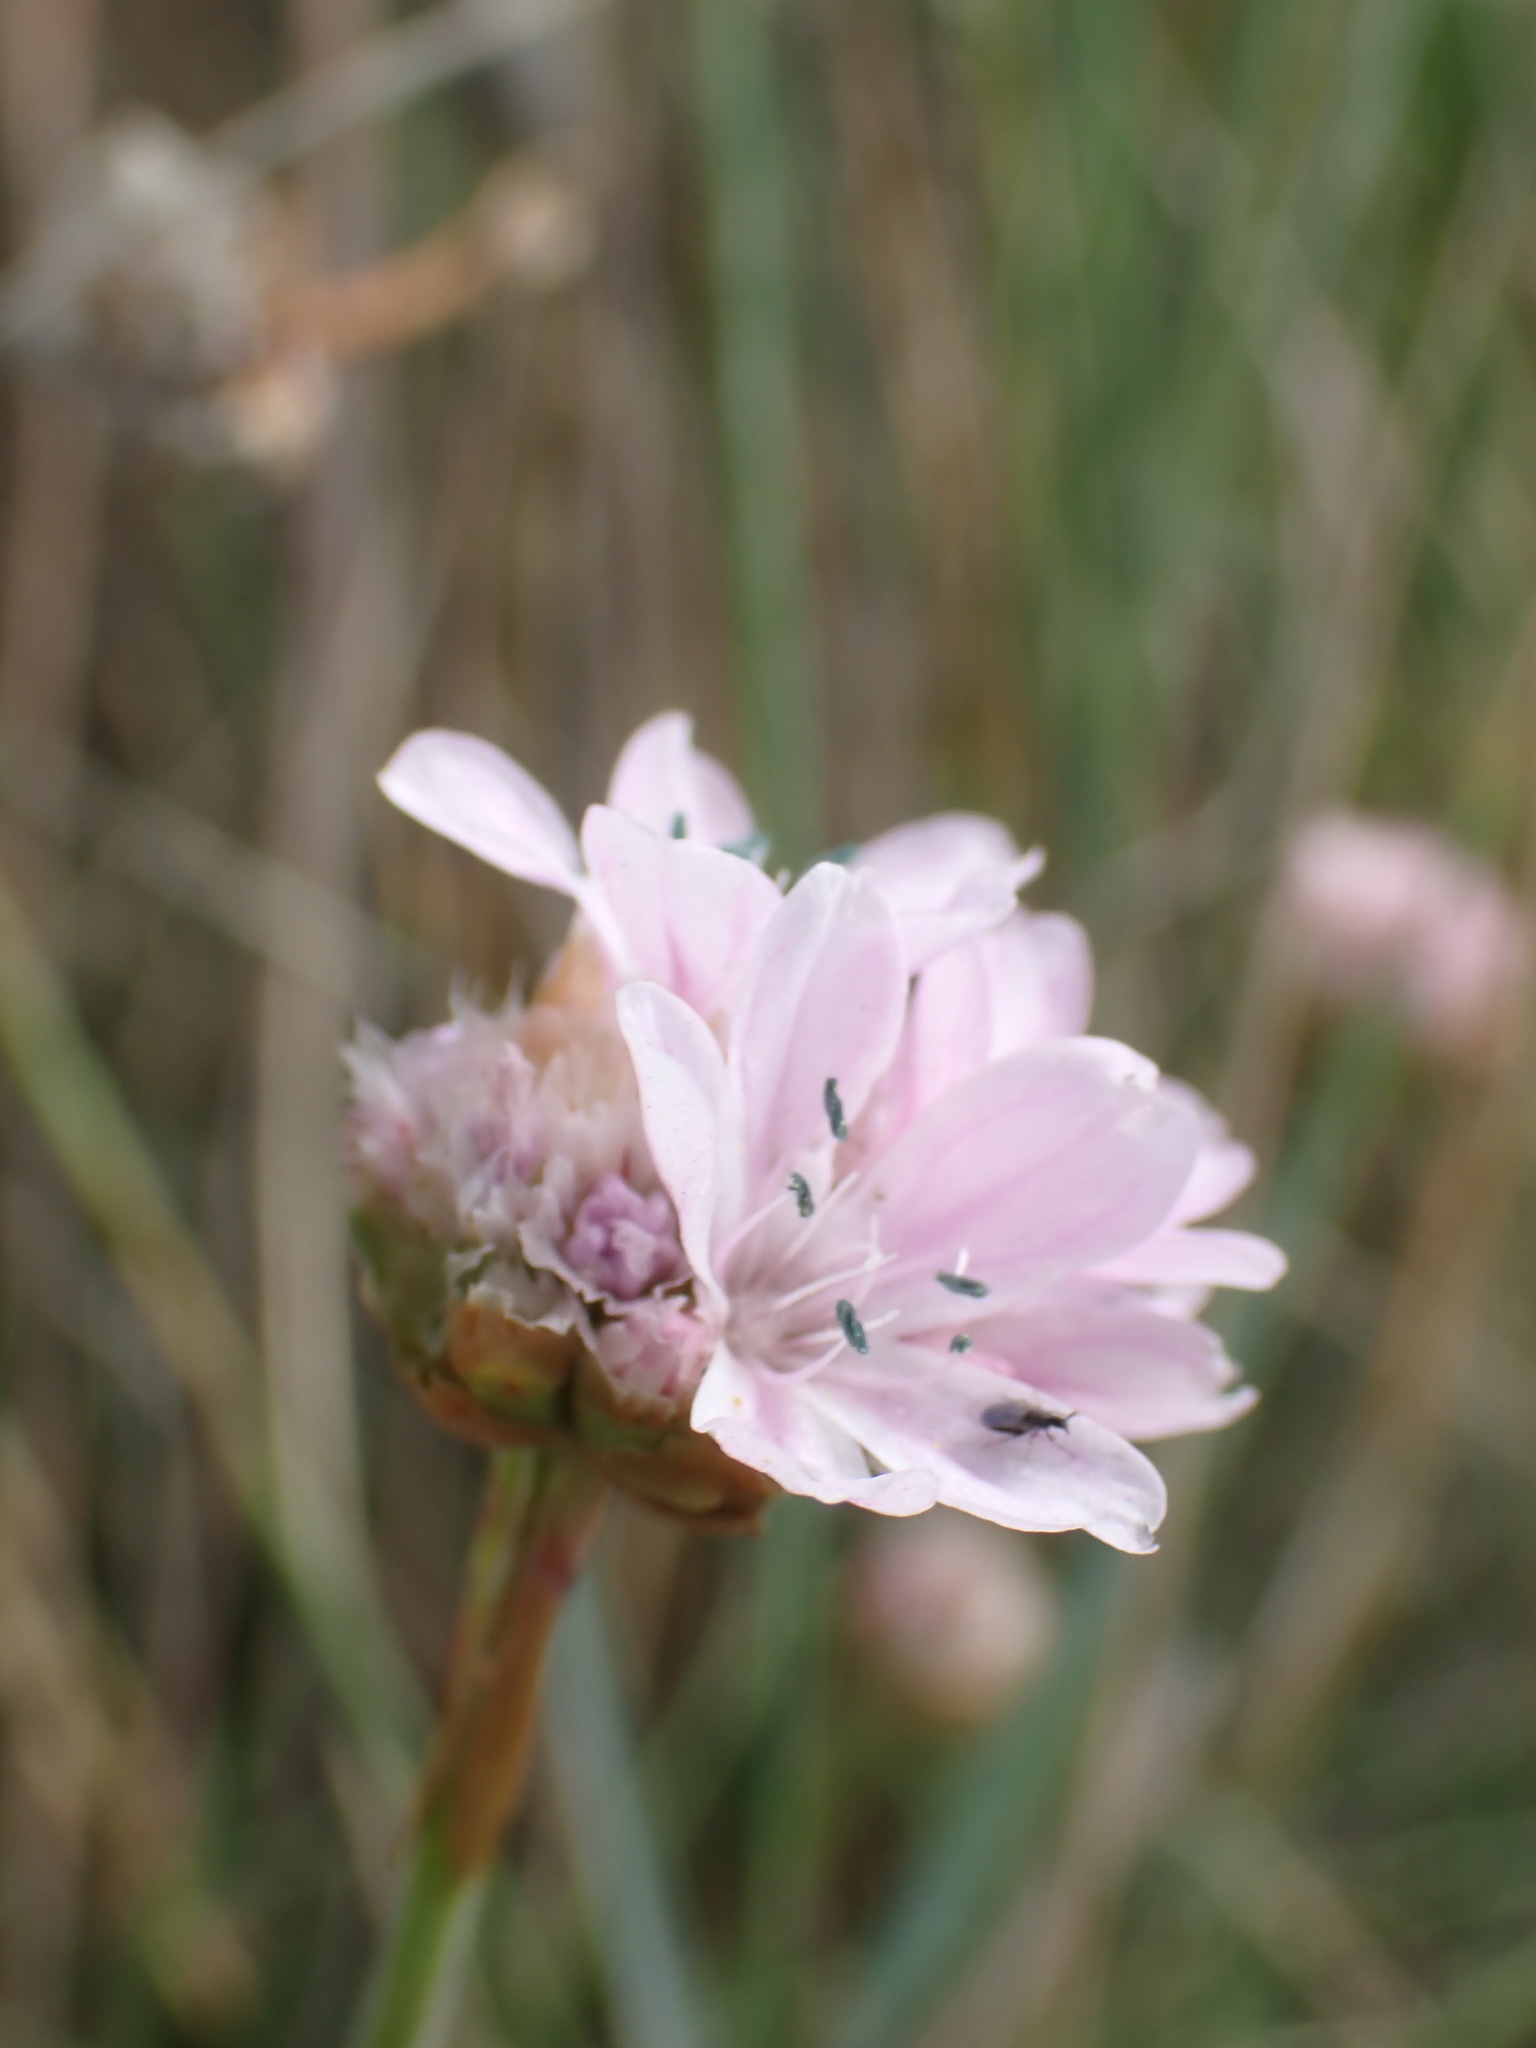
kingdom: Plantae
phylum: Tracheophyta
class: Magnoliopsida
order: Caryophyllales
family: Plumbaginaceae
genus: Armeria
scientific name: Armeria maritima
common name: Thrift
